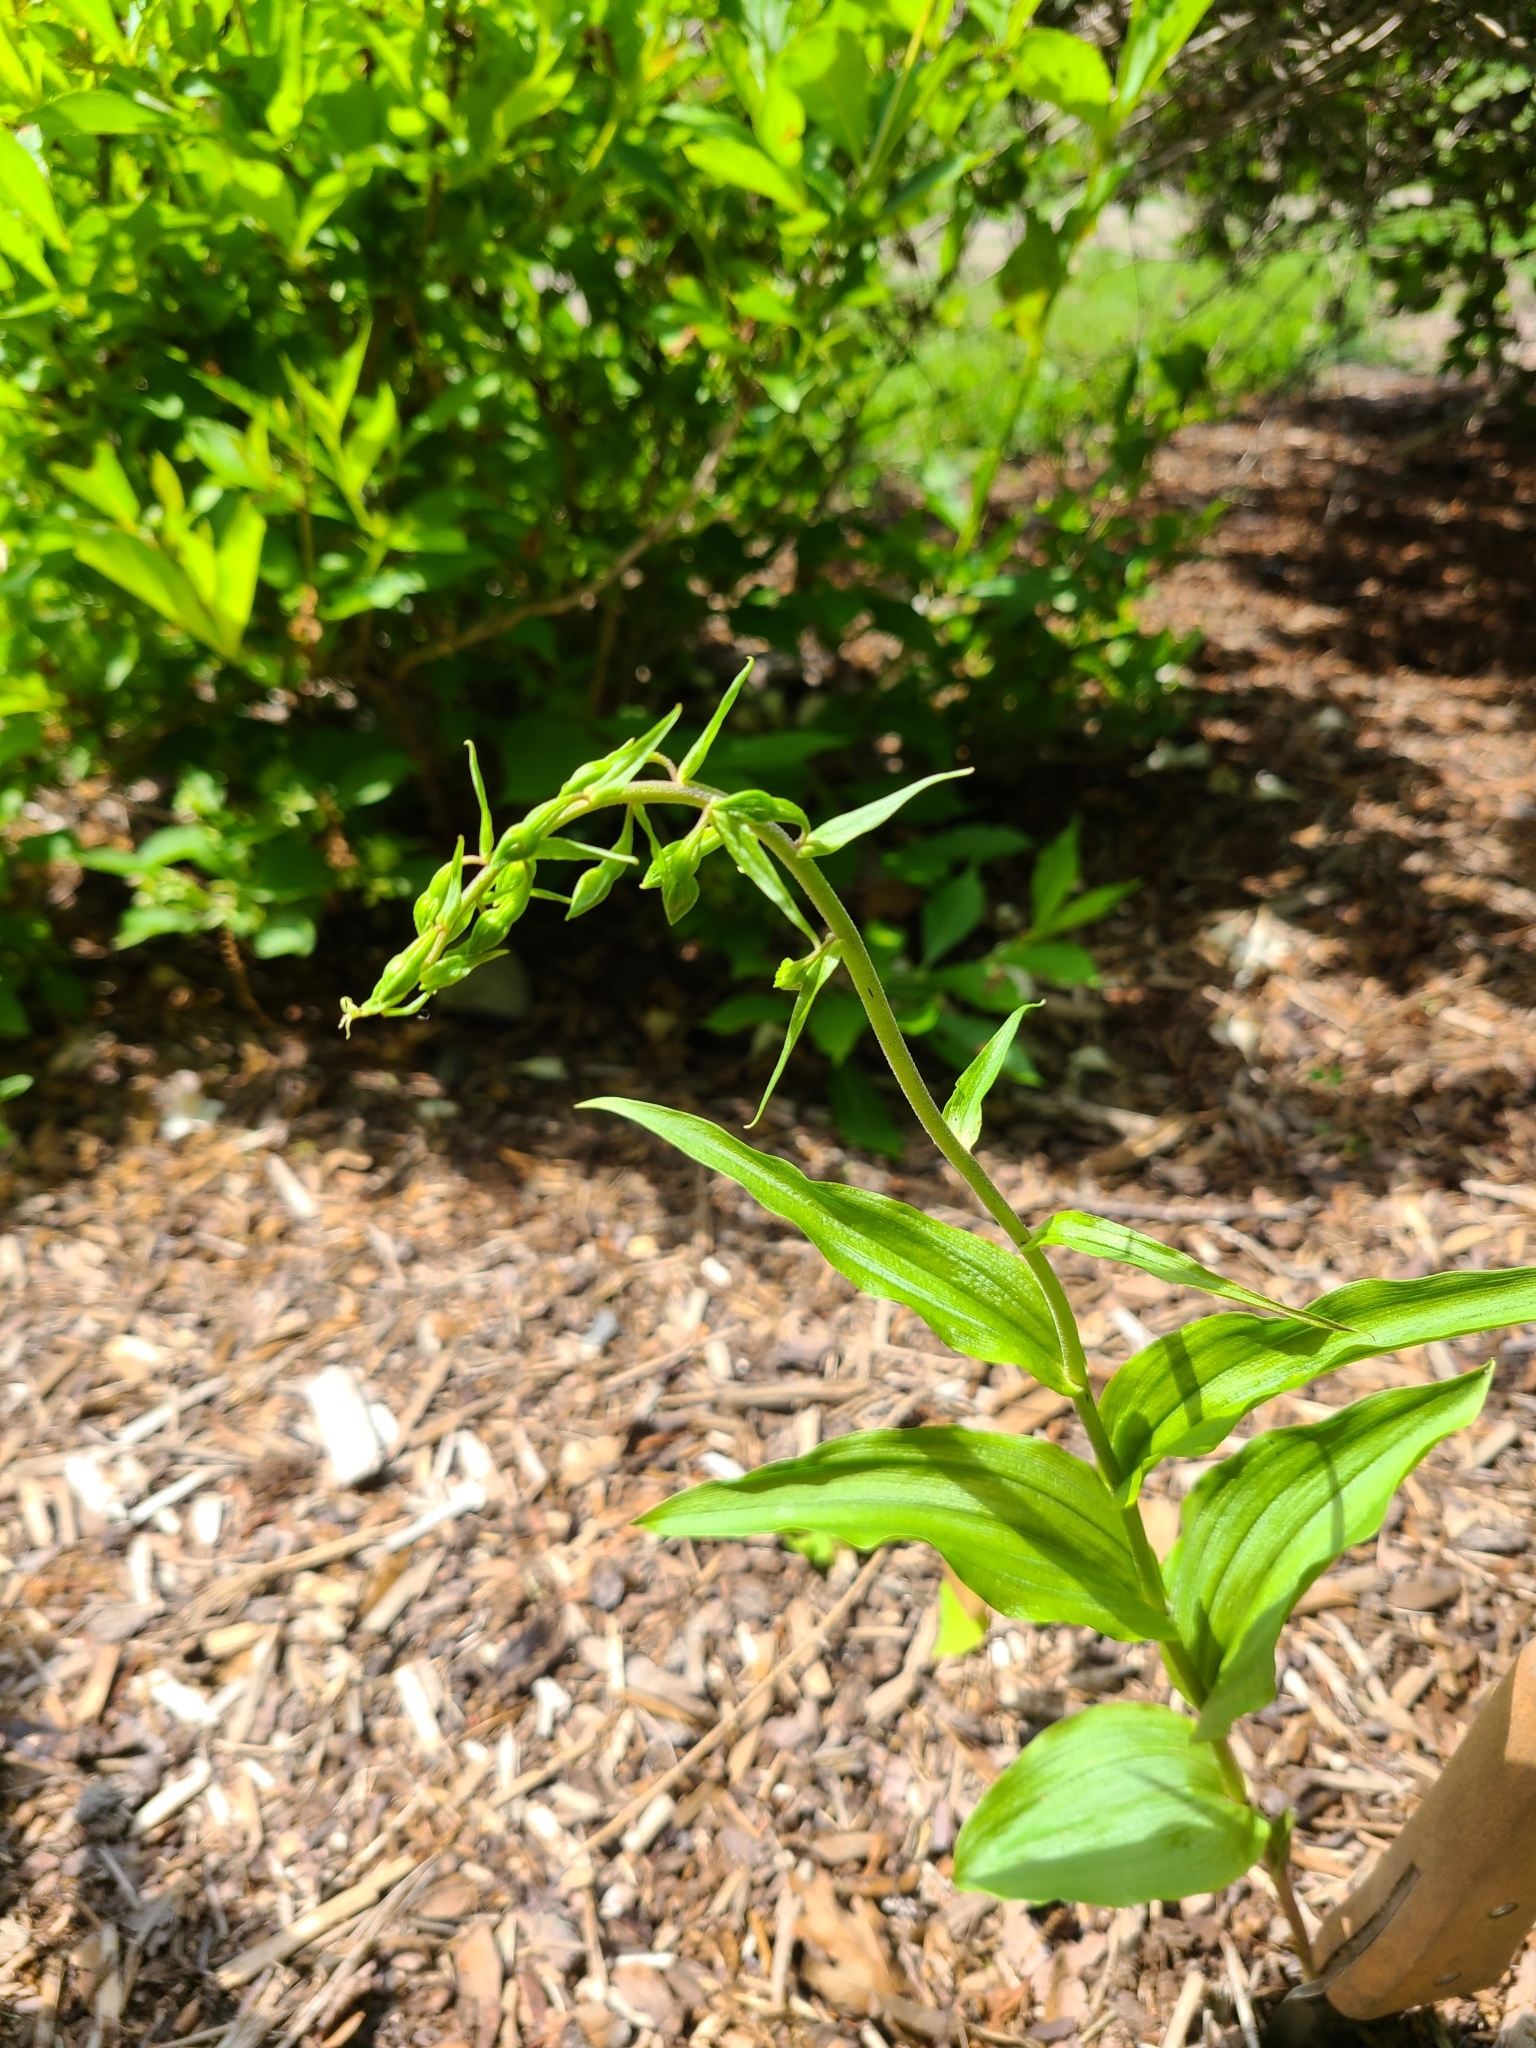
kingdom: Plantae
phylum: Tracheophyta
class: Liliopsida
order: Asparagales
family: Orchidaceae
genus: Epipactis
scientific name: Epipactis helleborine
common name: Broad-leaved helleborine
